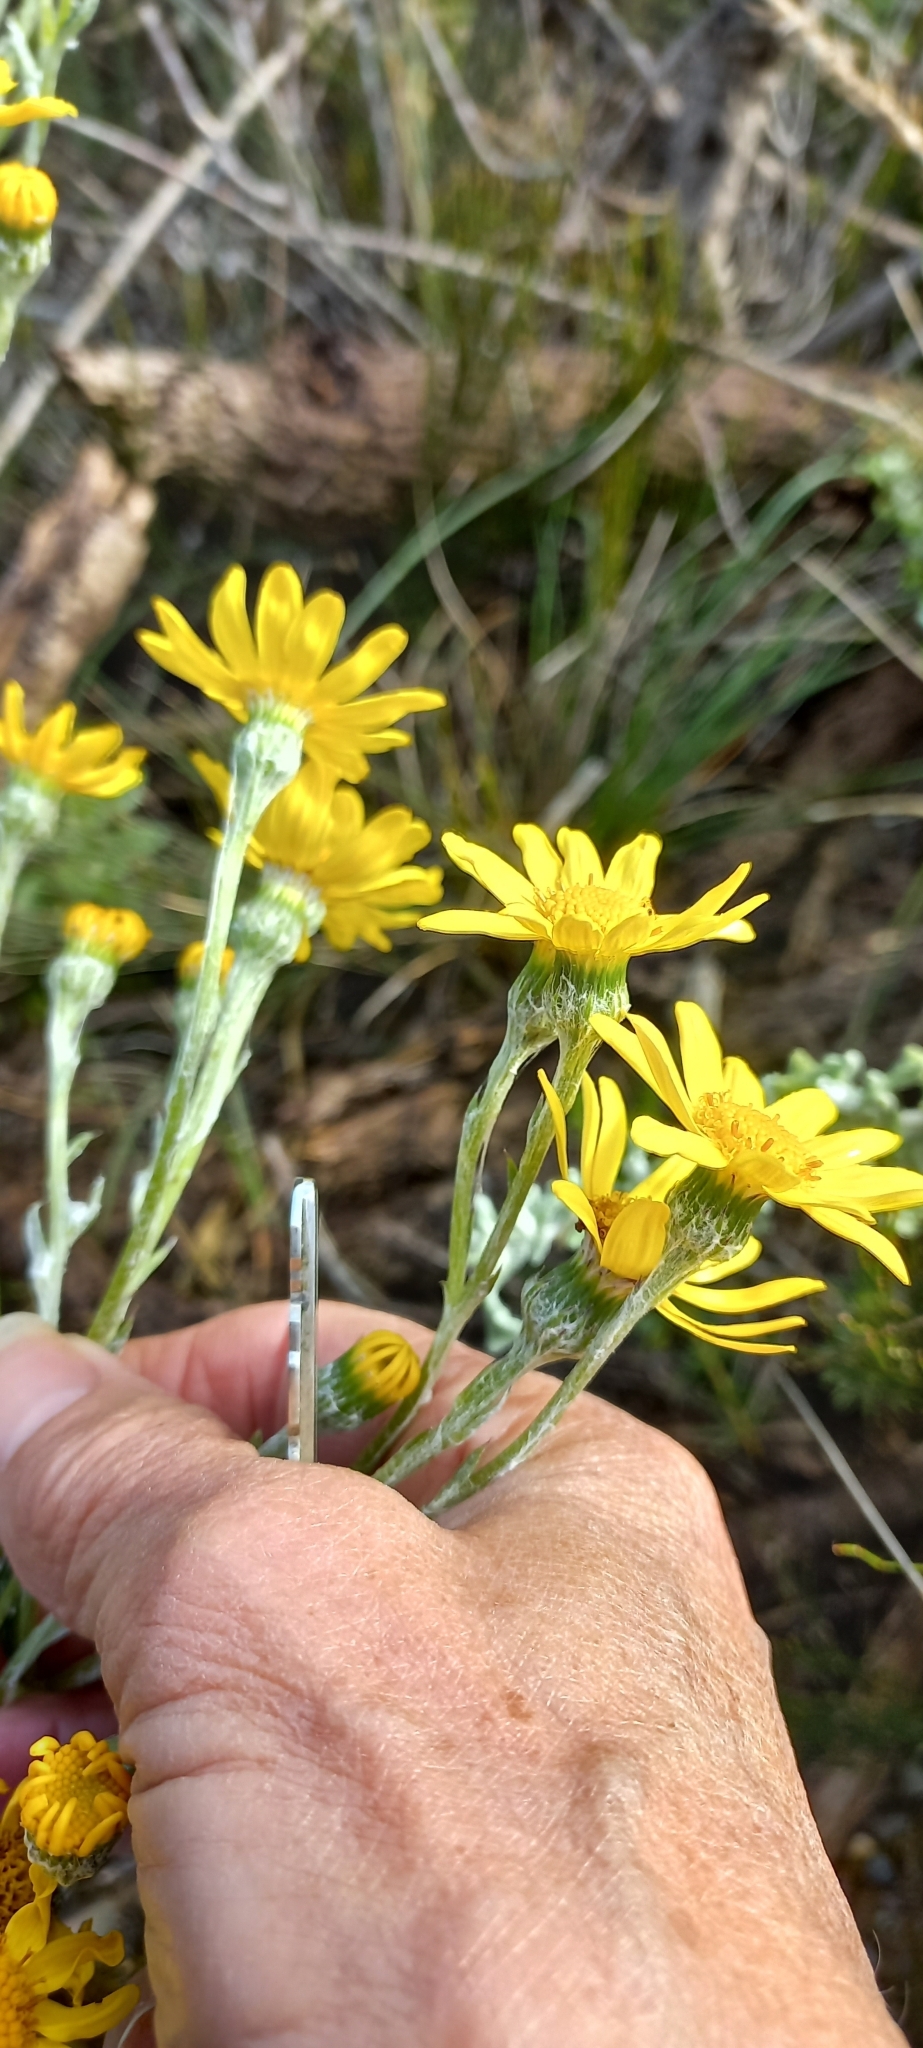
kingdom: Plantae
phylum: Tracheophyta
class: Magnoliopsida
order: Asterales
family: Asteraceae
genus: Senecio
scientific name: Senecio arniciflorus
